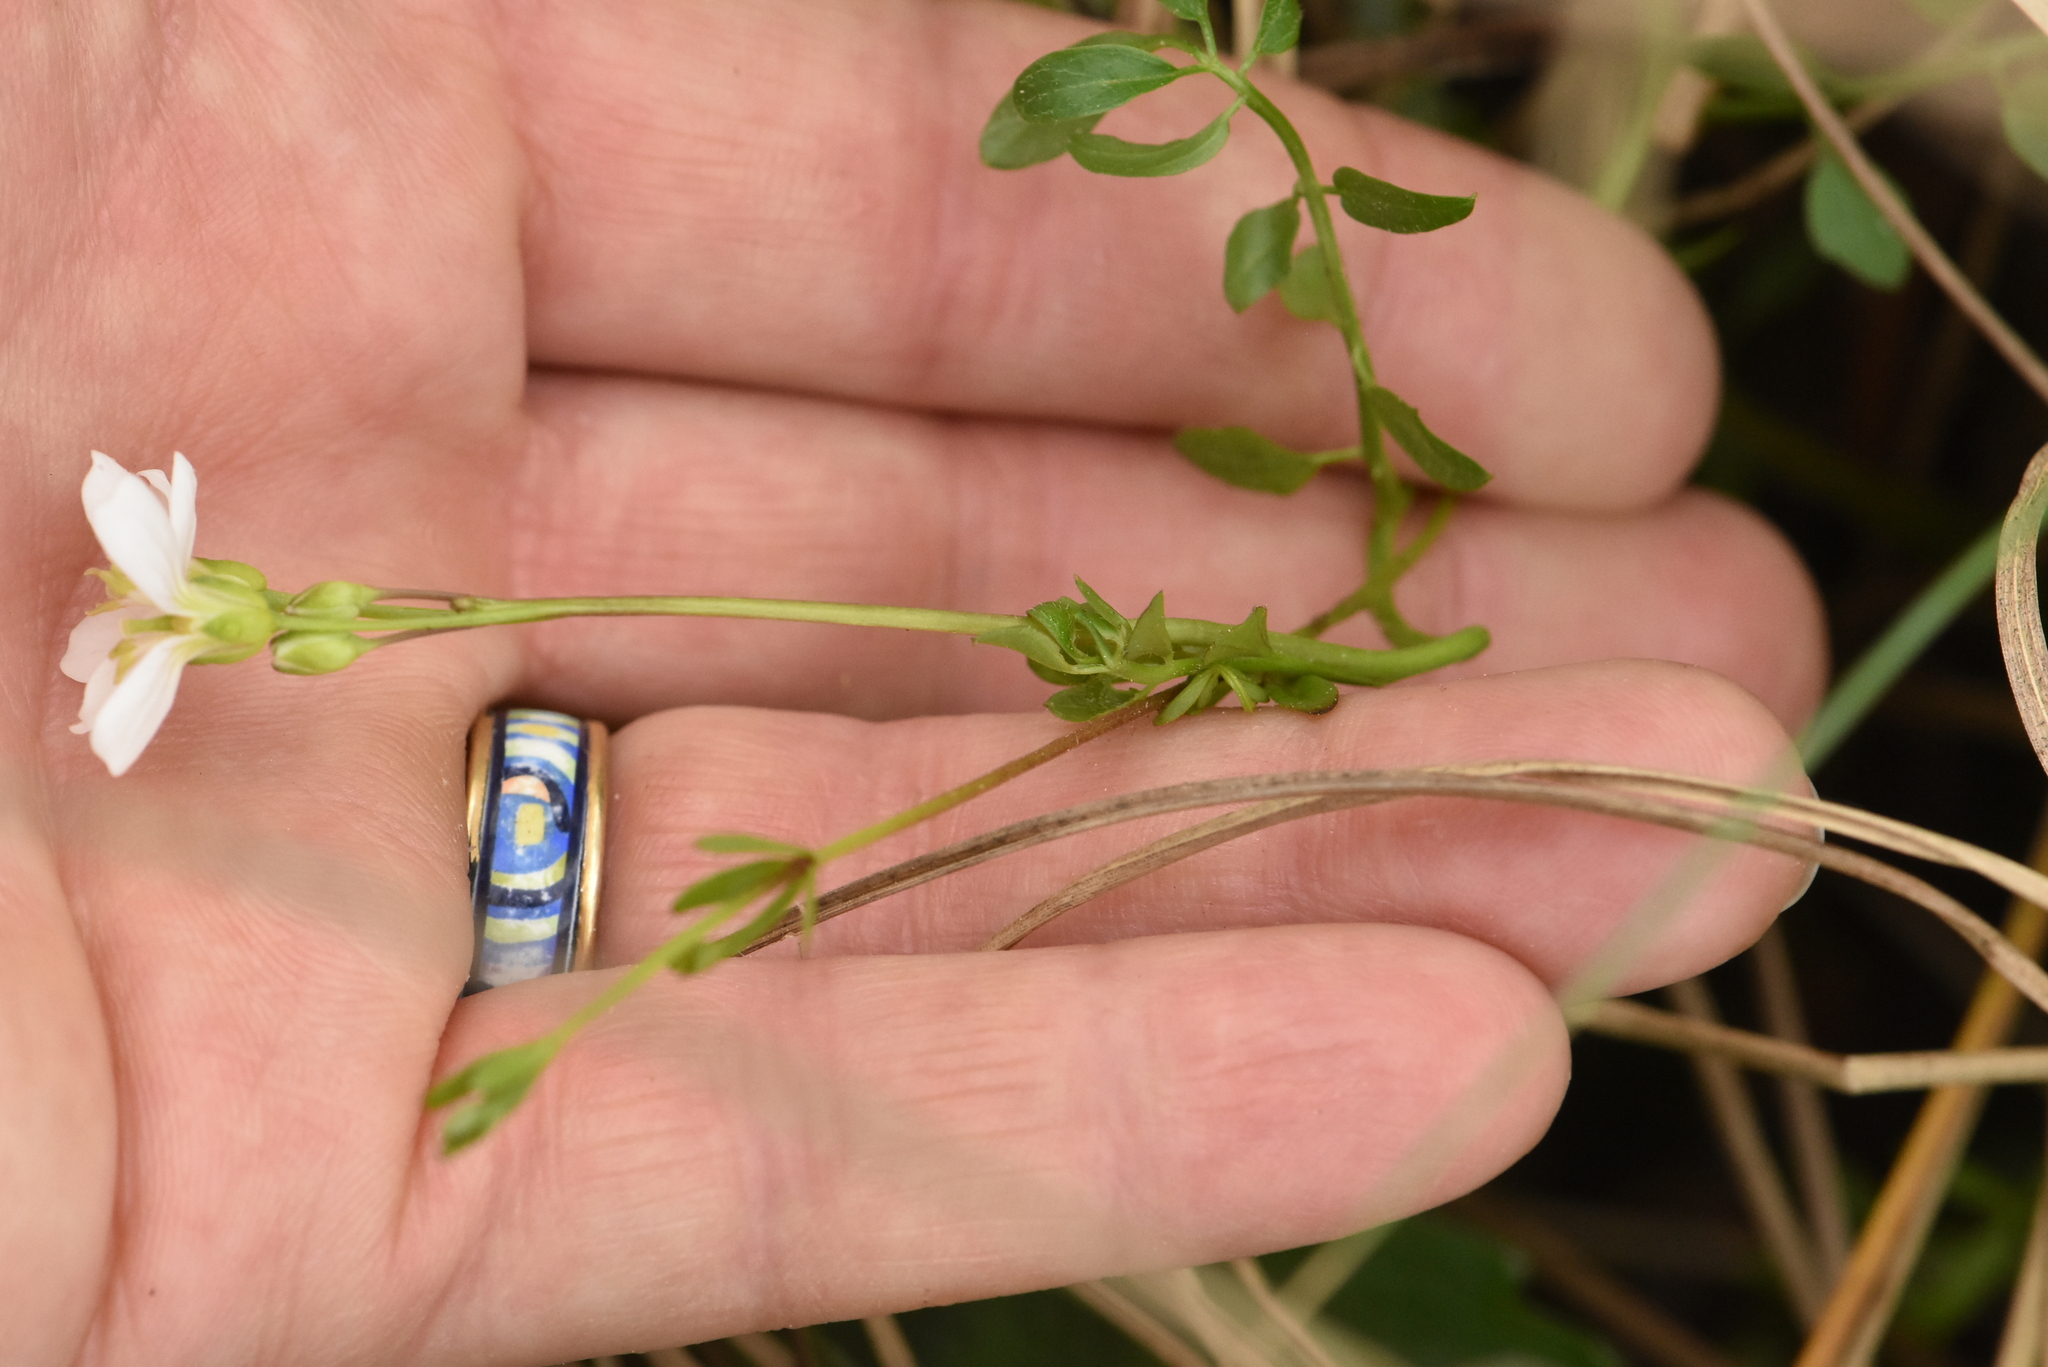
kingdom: Plantae
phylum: Tracheophyta
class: Magnoliopsida
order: Brassicales
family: Brassicaceae
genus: Cardamine
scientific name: Cardamine dentata
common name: Toothed bittercress
